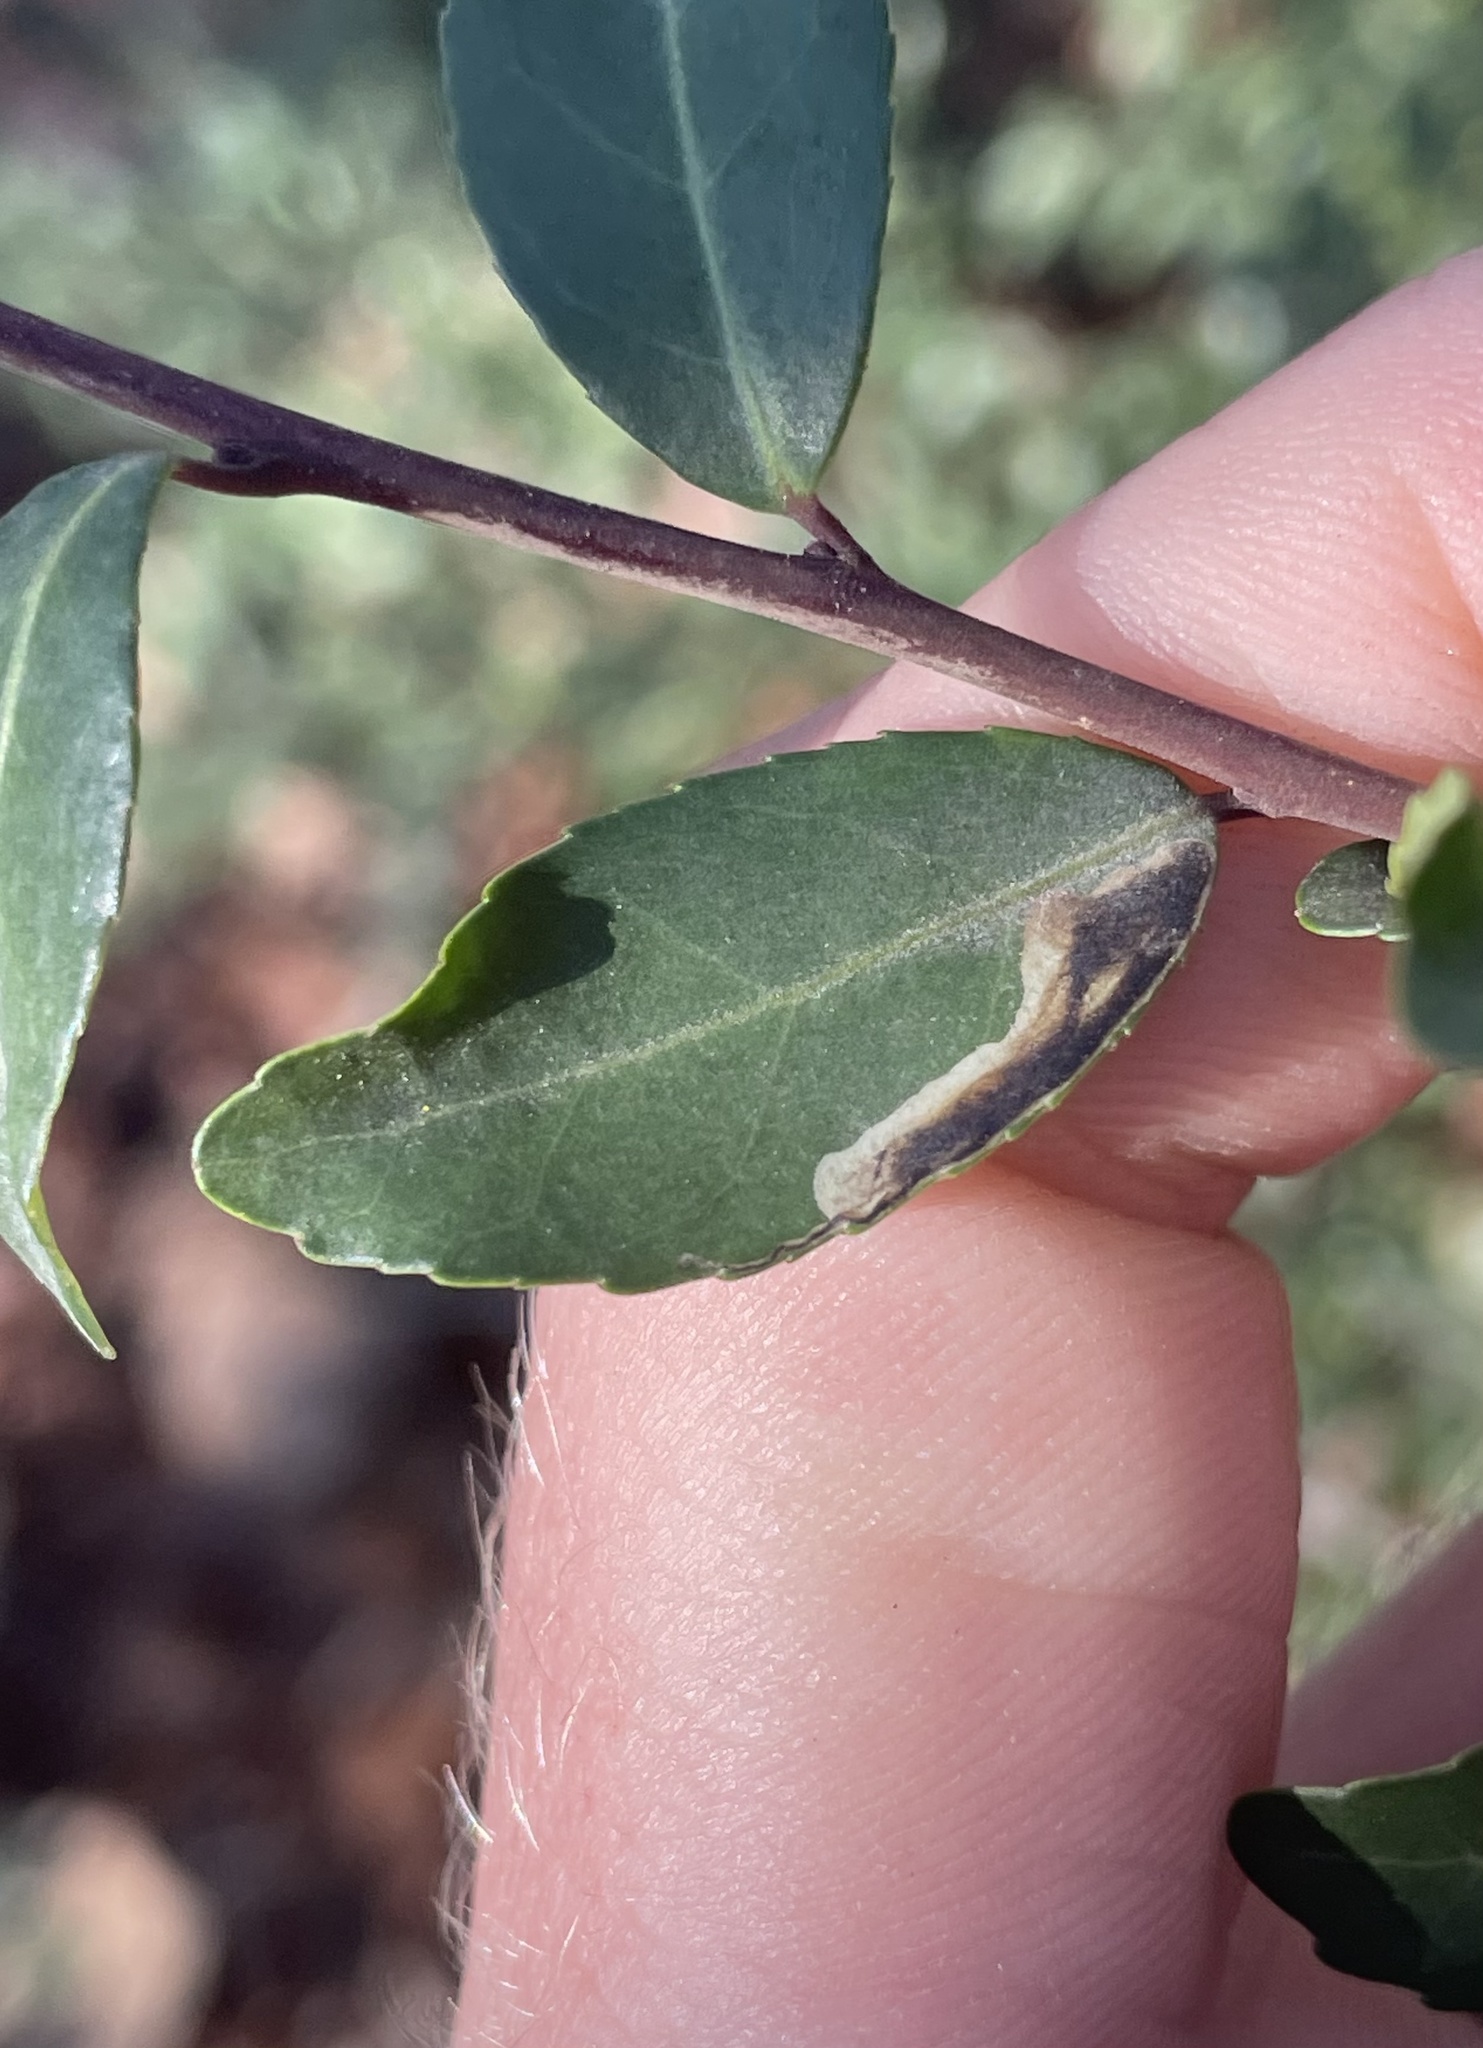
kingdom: Animalia
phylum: Arthropoda
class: Insecta
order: Diptera
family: Agromyzidae
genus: Phytomyza
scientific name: Phytomyza vomitoriae
